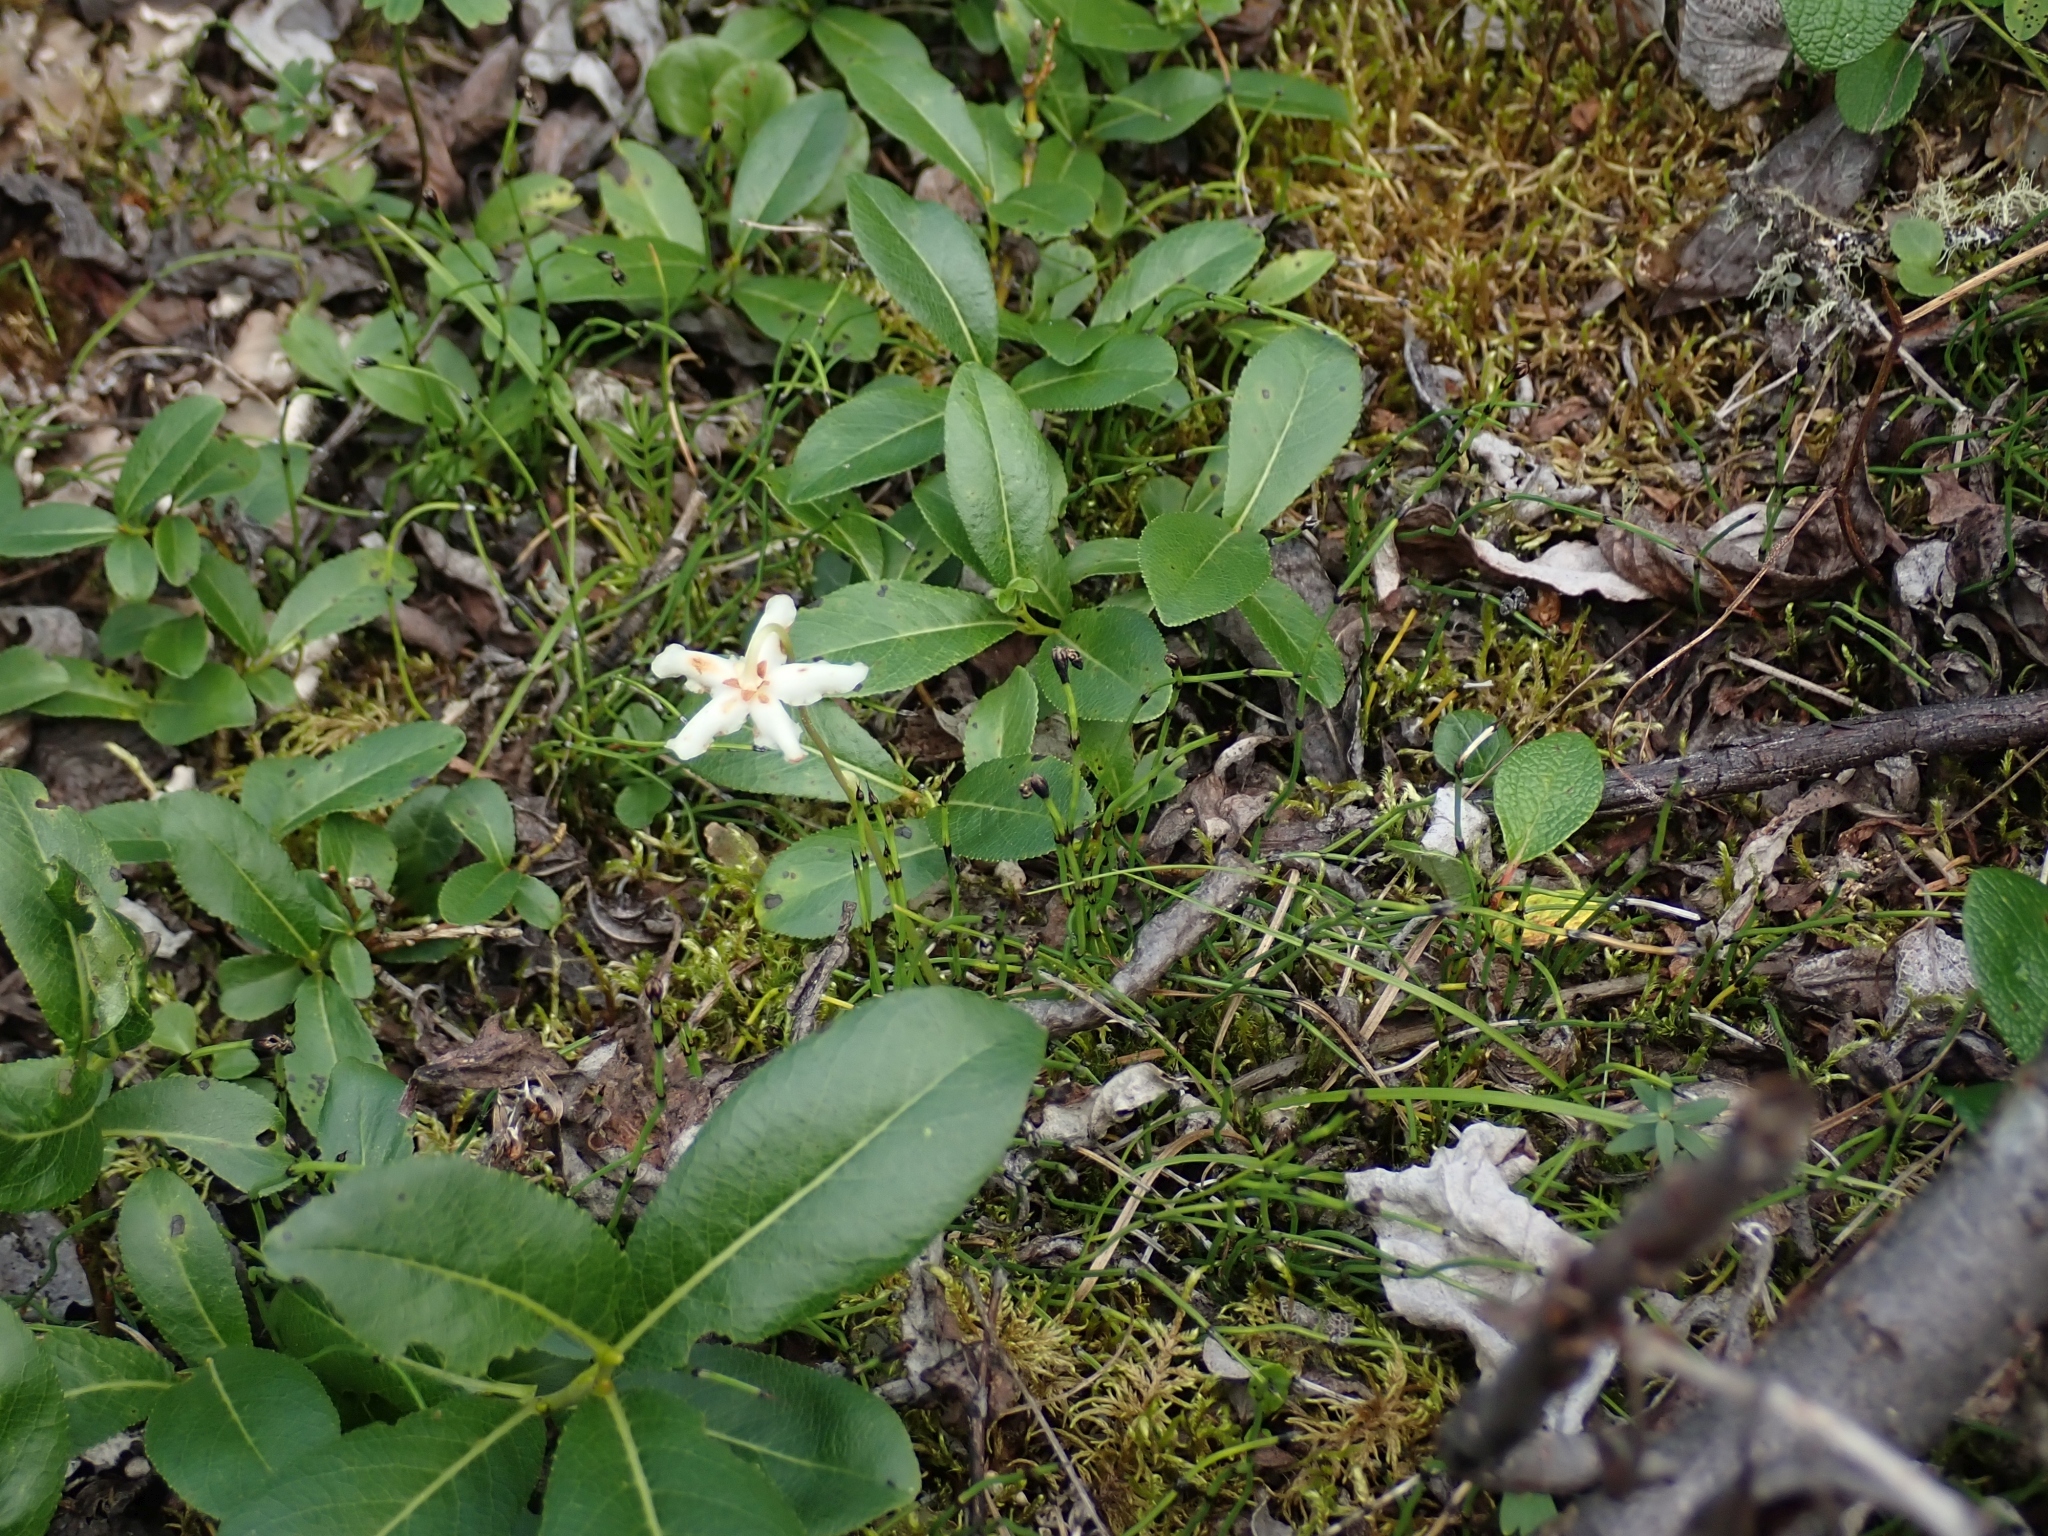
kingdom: Plantae
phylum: Tracheophyta
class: Magnoliopsida
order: Ericales
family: Ericaceae
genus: Moneses
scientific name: Moneses uniflora
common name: One-flowered wintergreen
